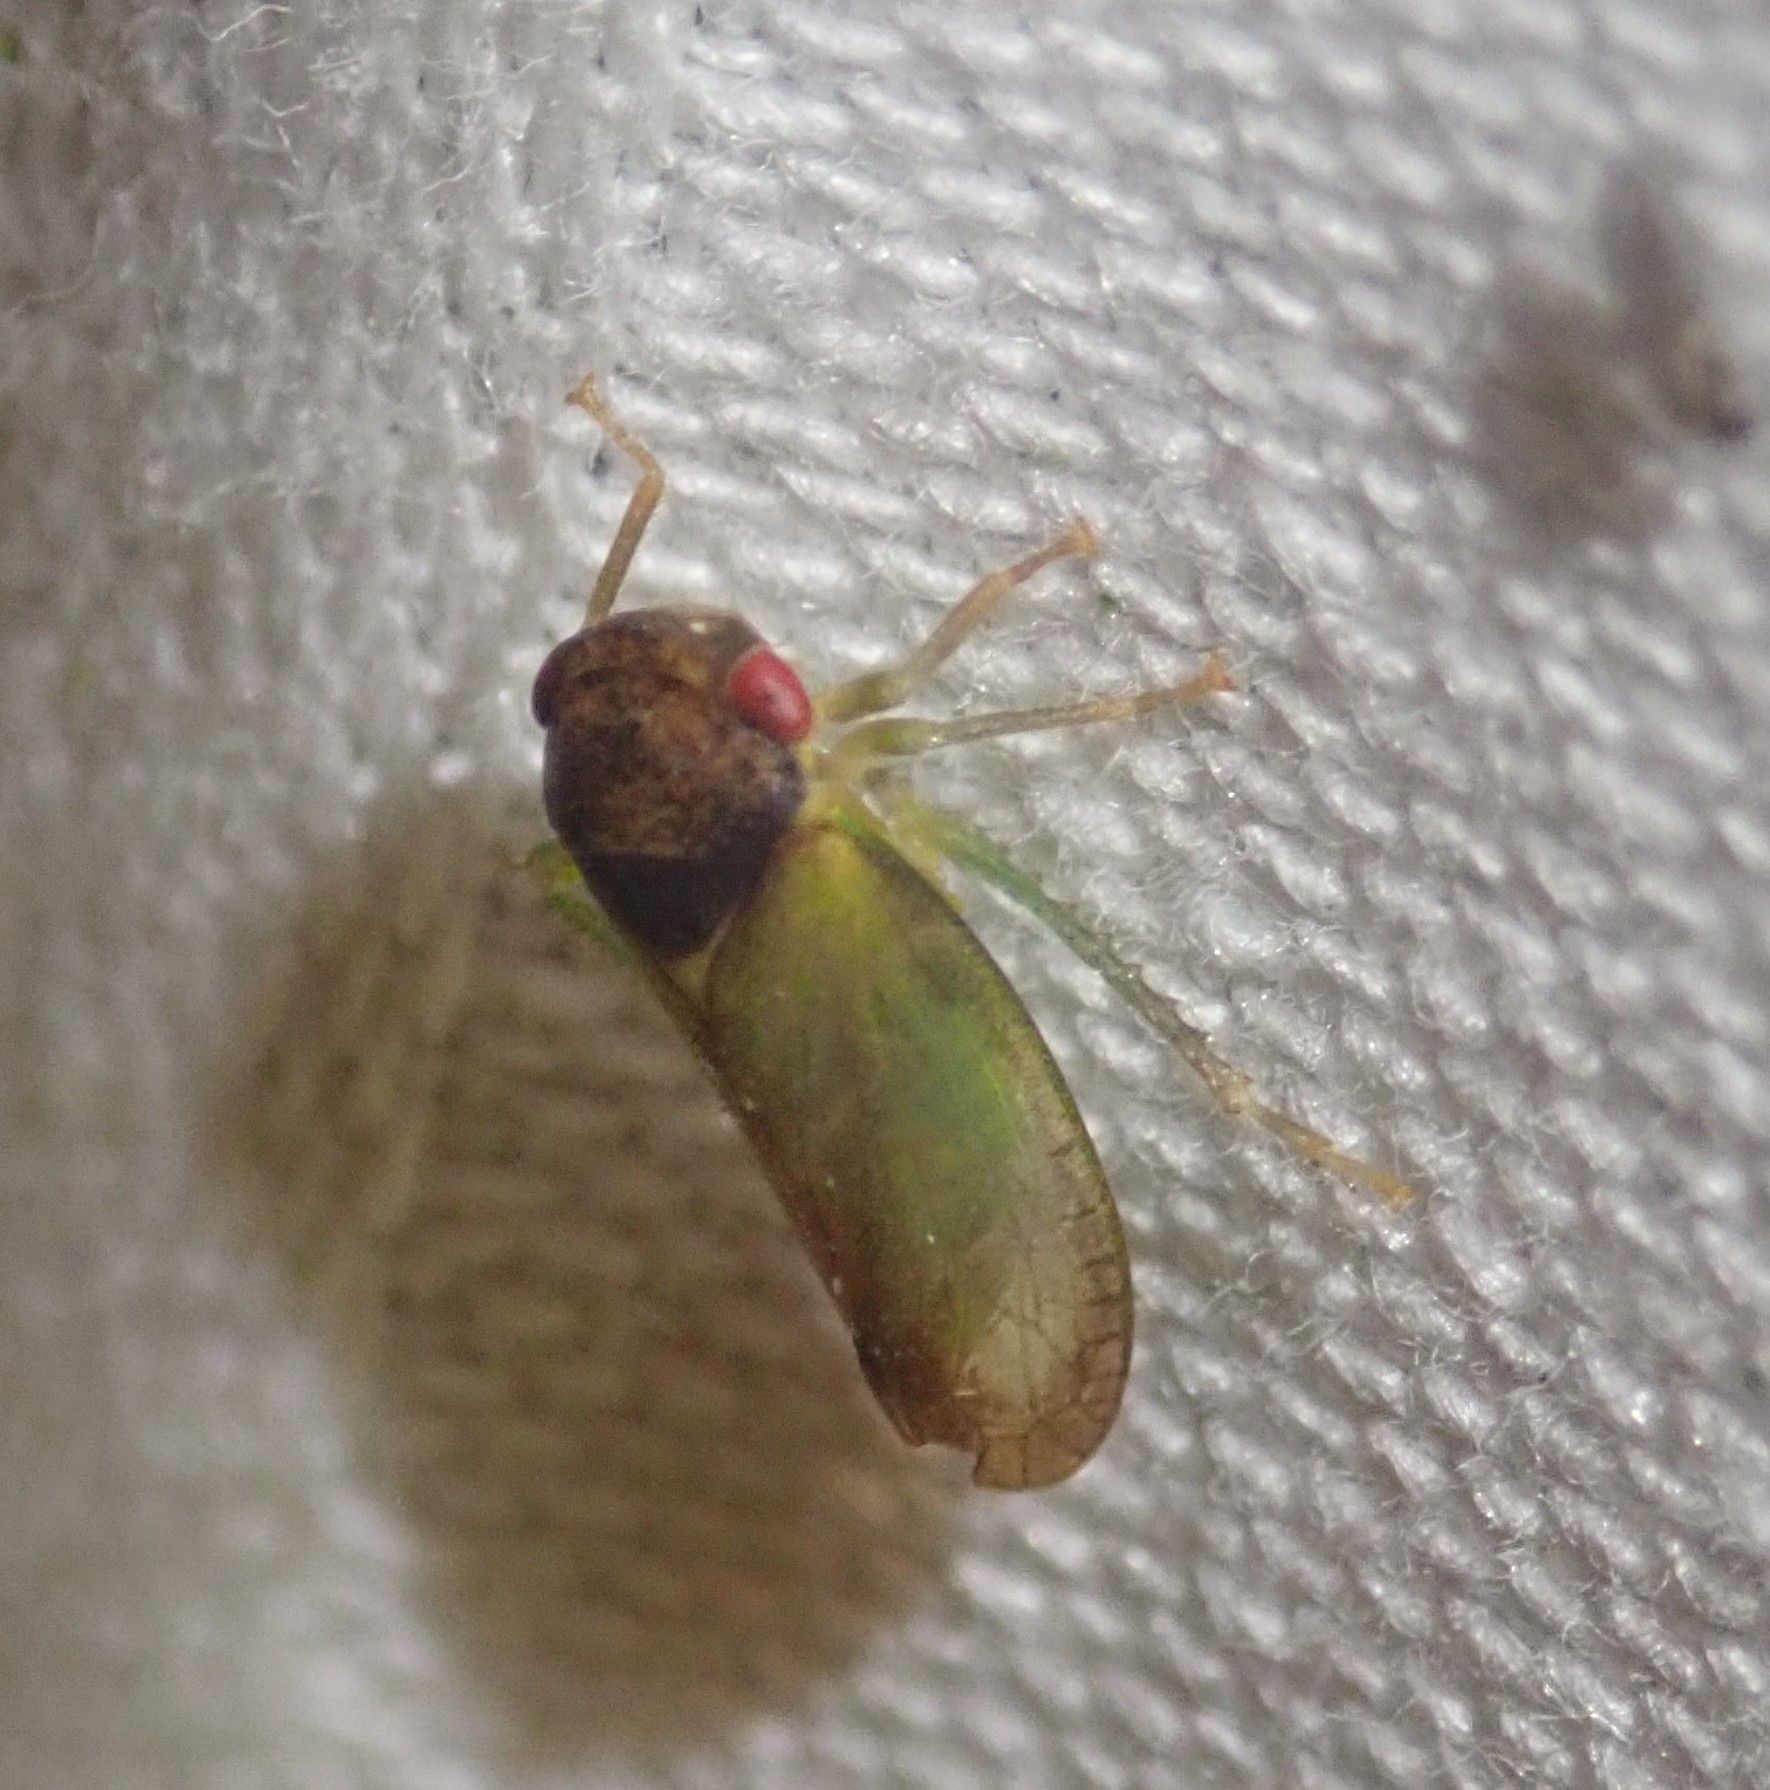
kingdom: Animalia
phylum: Arthropoda
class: Insecta
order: Hemiptera
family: Cicadellidae
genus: Iassus
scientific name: Iassus lanio
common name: Leafhopper
